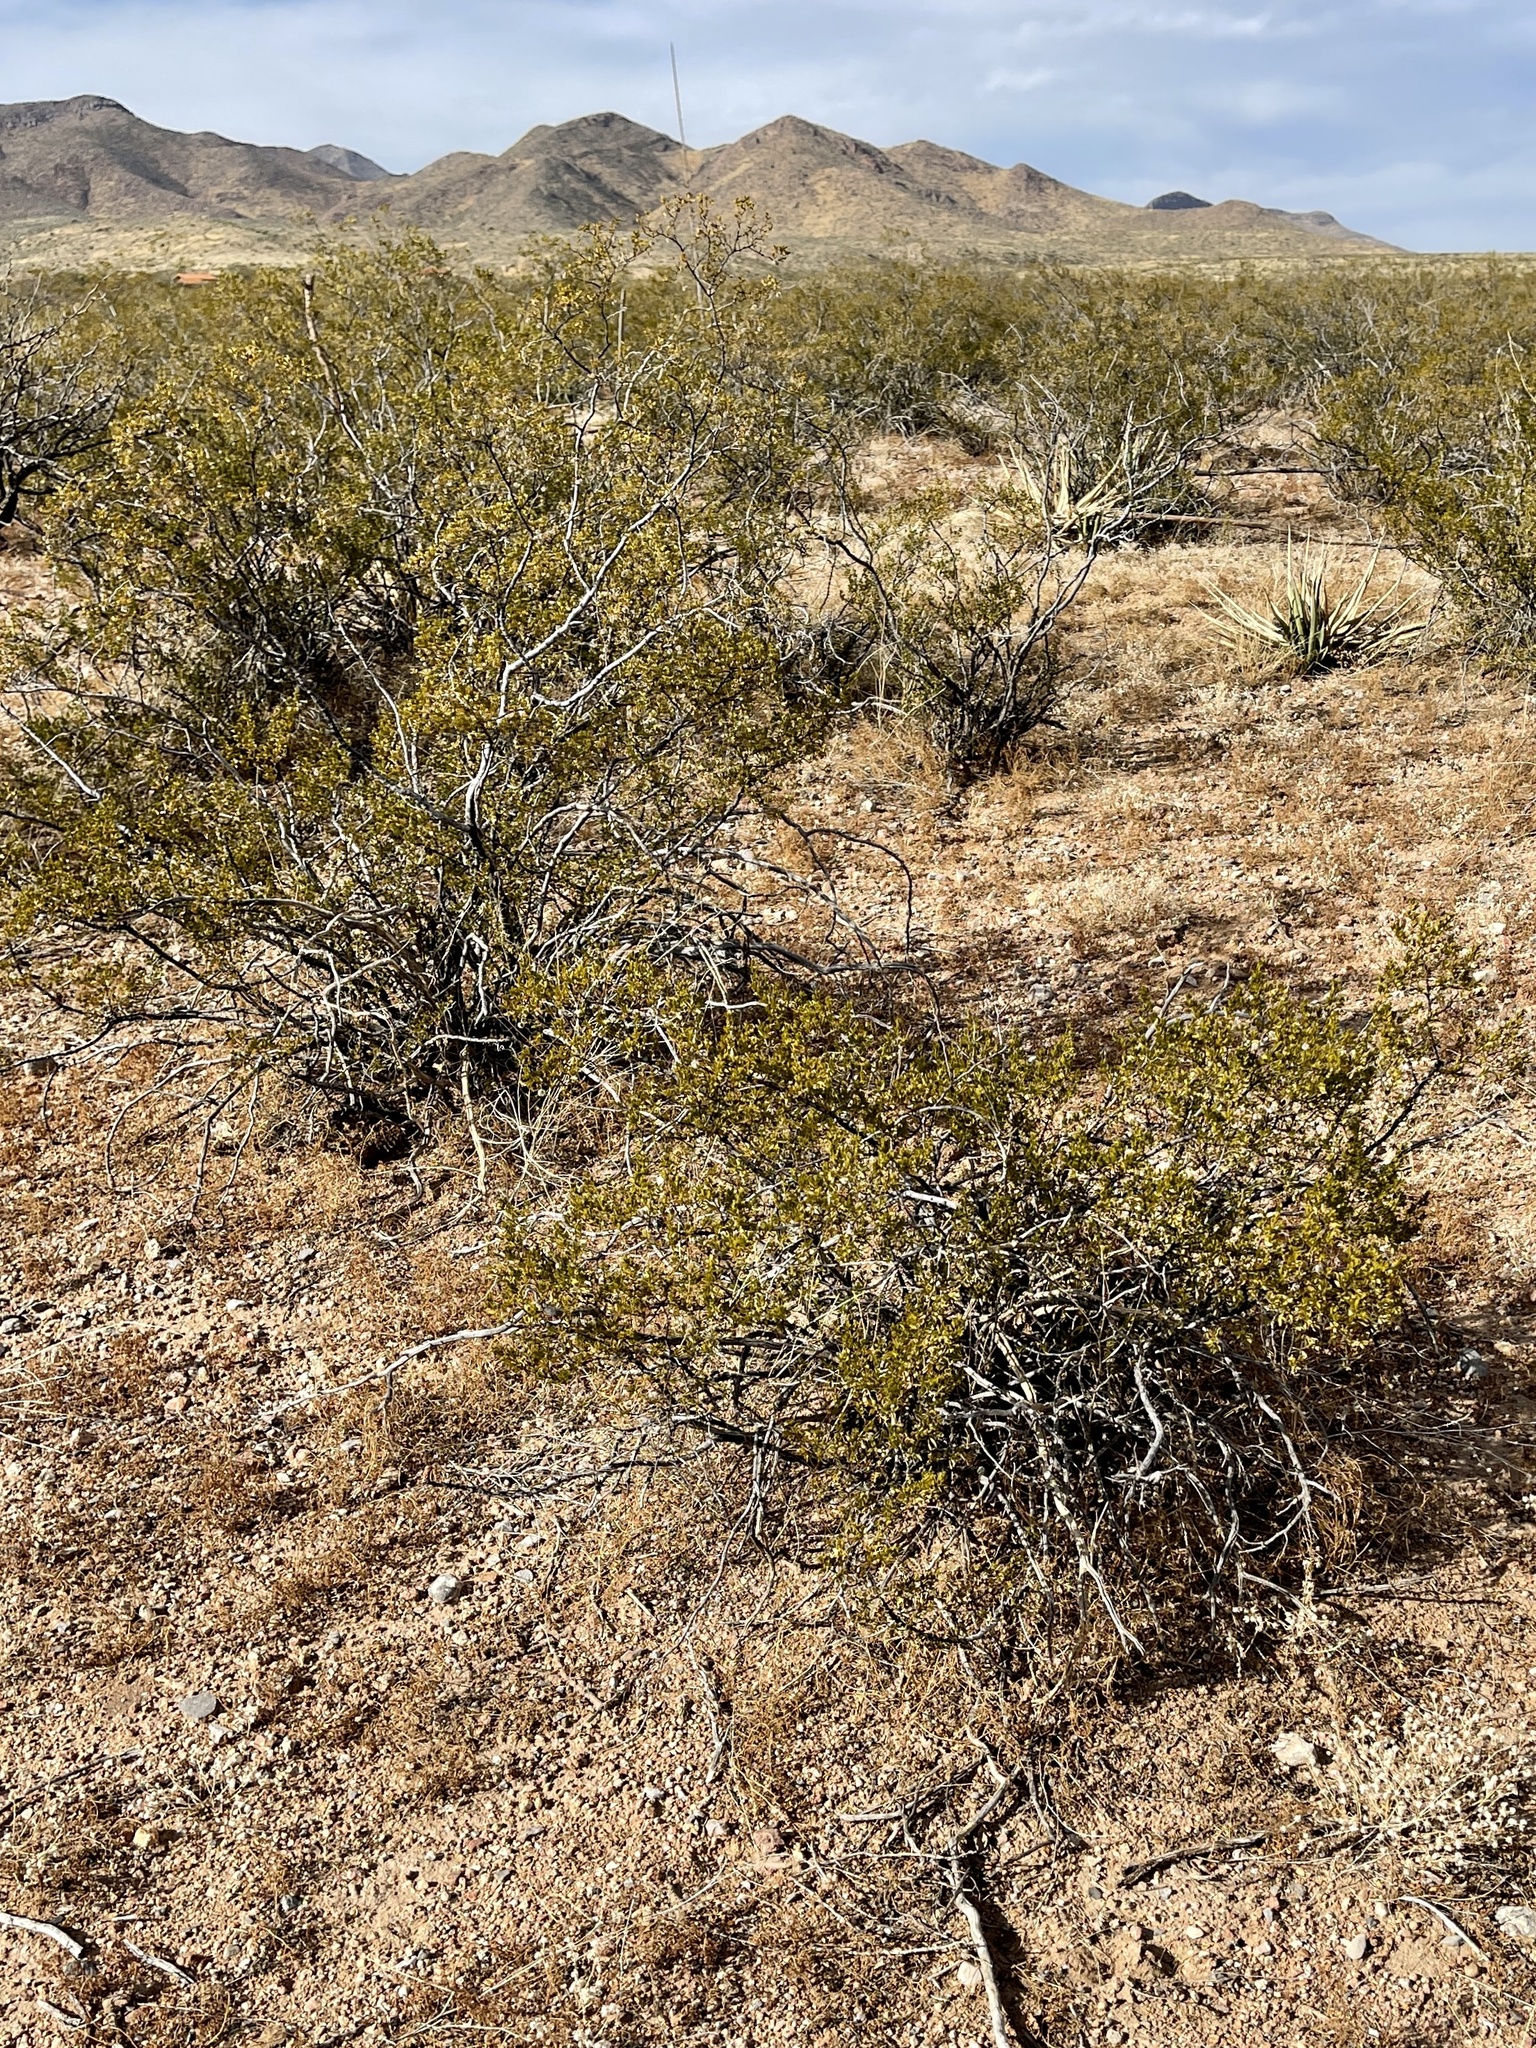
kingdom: Plantae
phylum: Tracheophyta
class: Magnoliopsida
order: Zygophyllales
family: Zygophyllaceae
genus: Larrea
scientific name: Larrea tridentata
